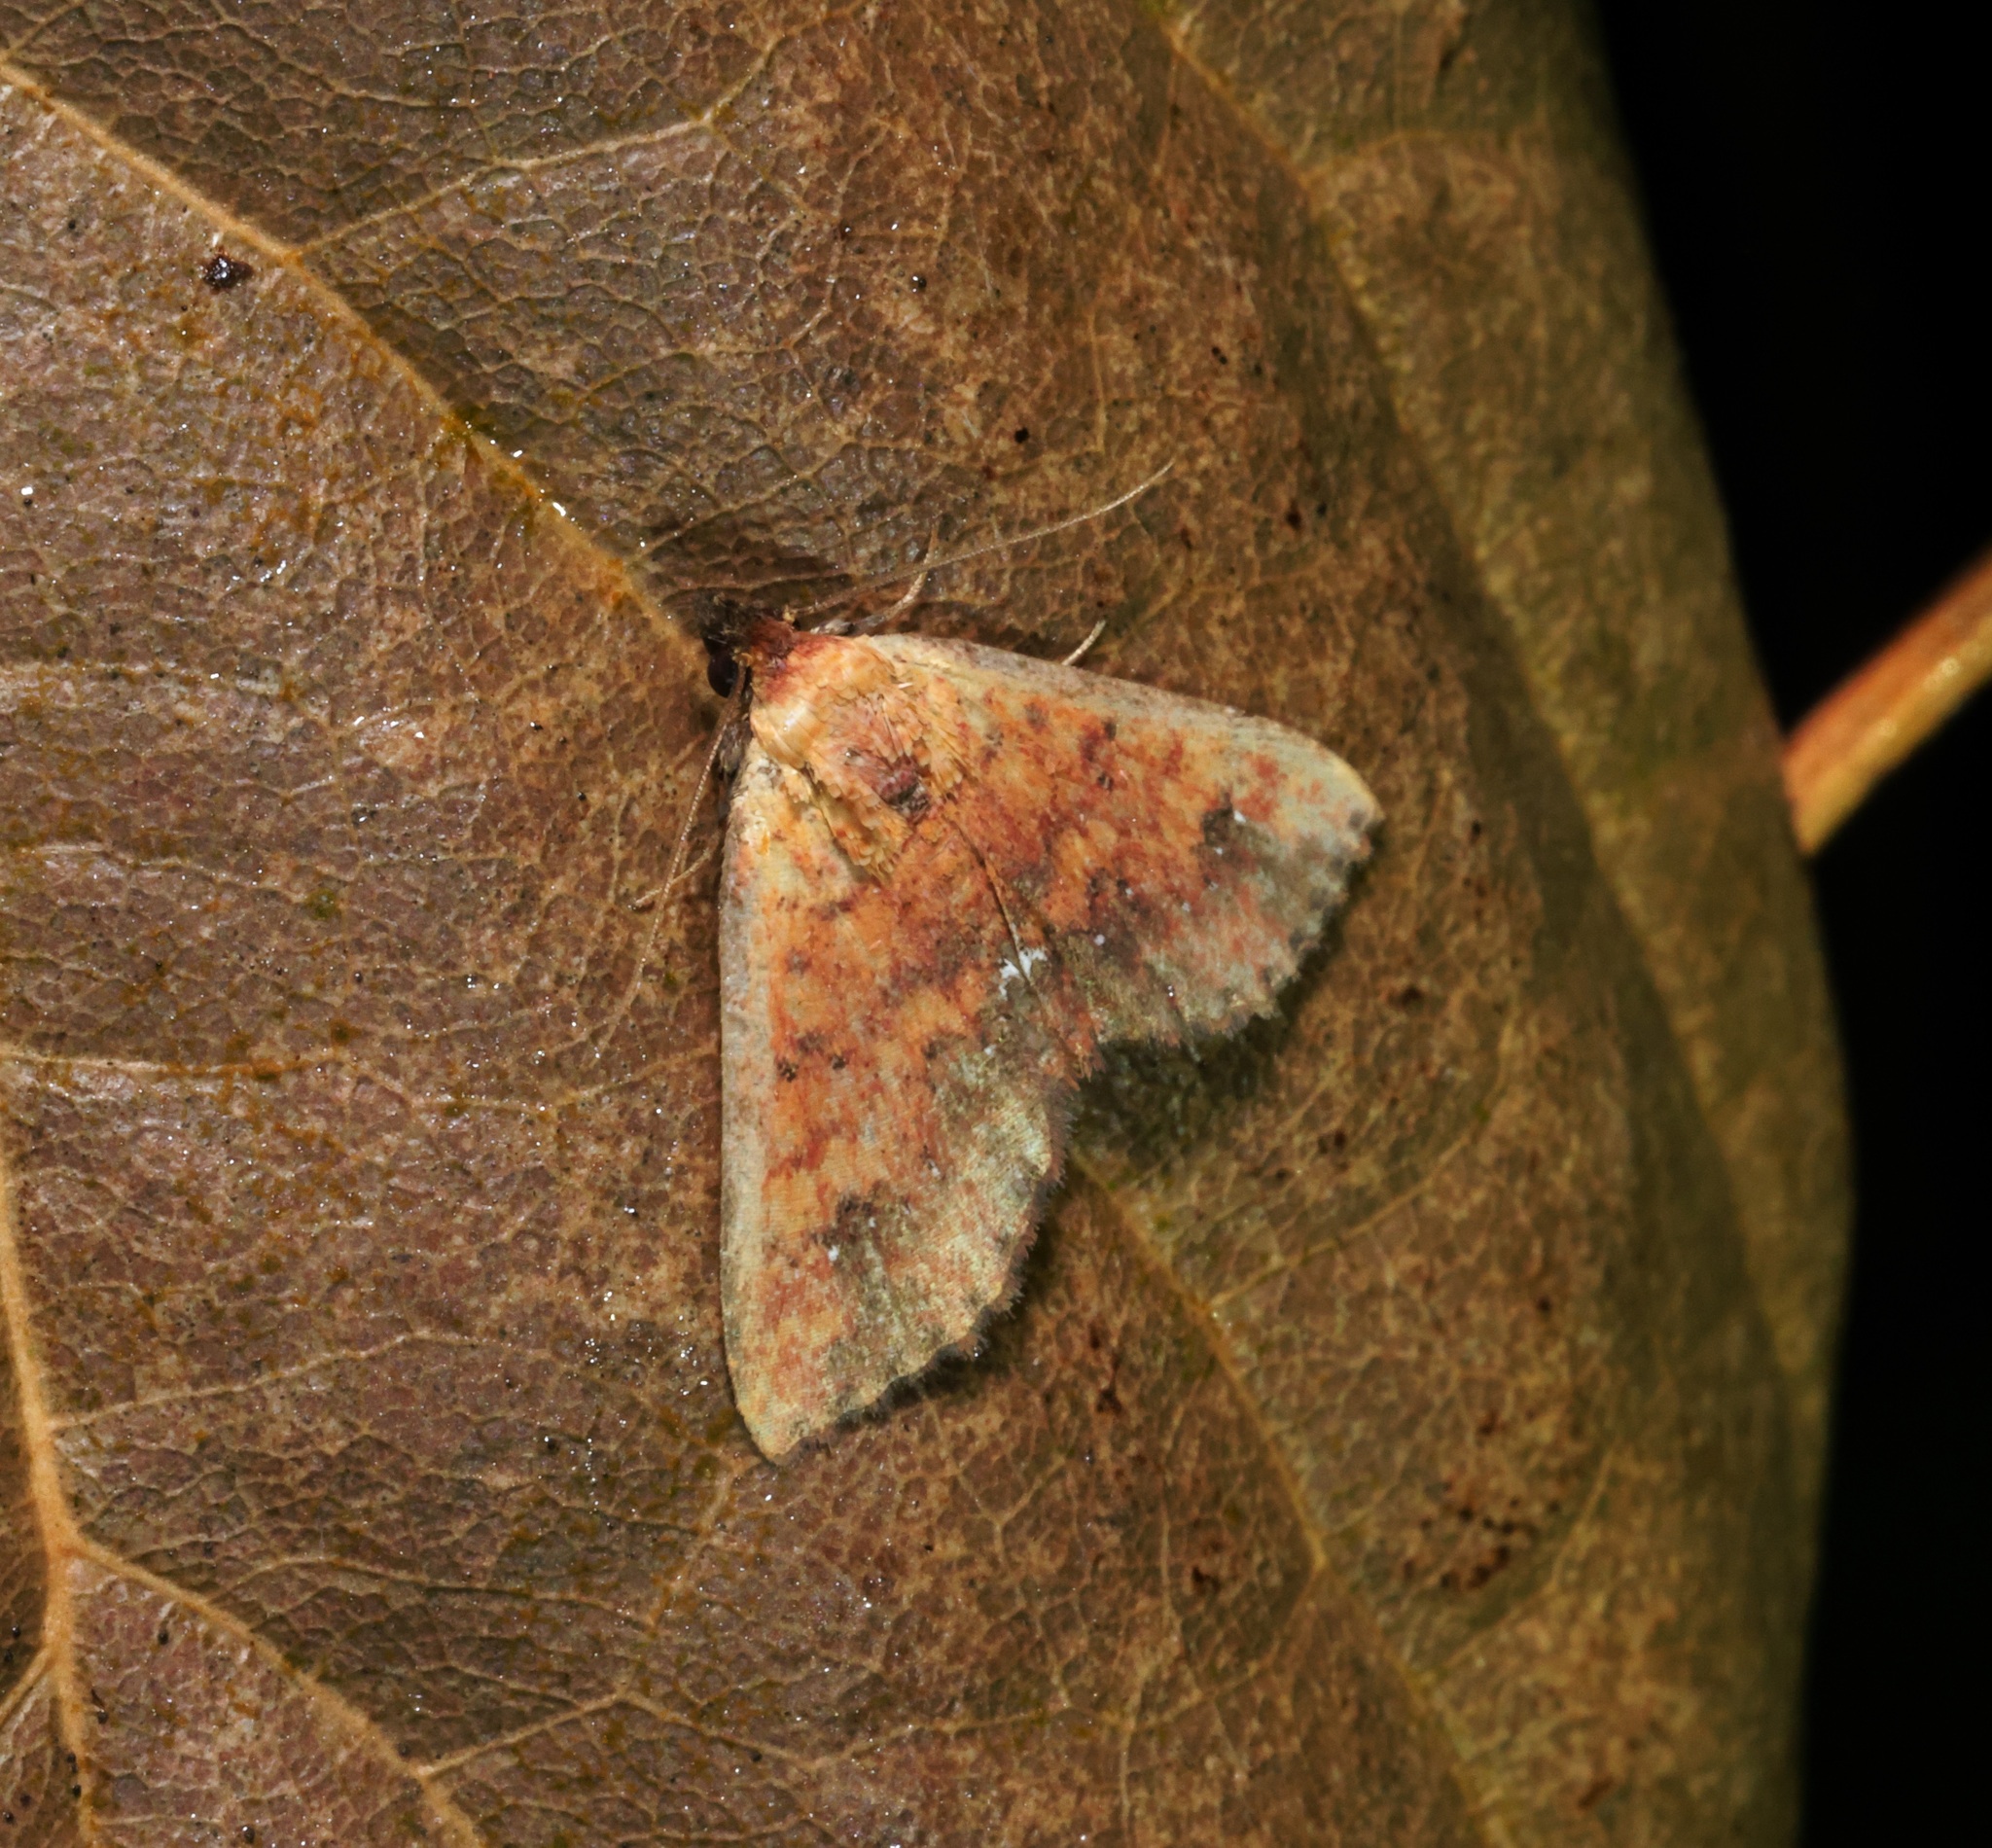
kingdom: Animalia
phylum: Arthropoda
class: Insecta
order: Lepidoptera
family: Noctuidae
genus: Cerynea
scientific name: Cerynea ustula
